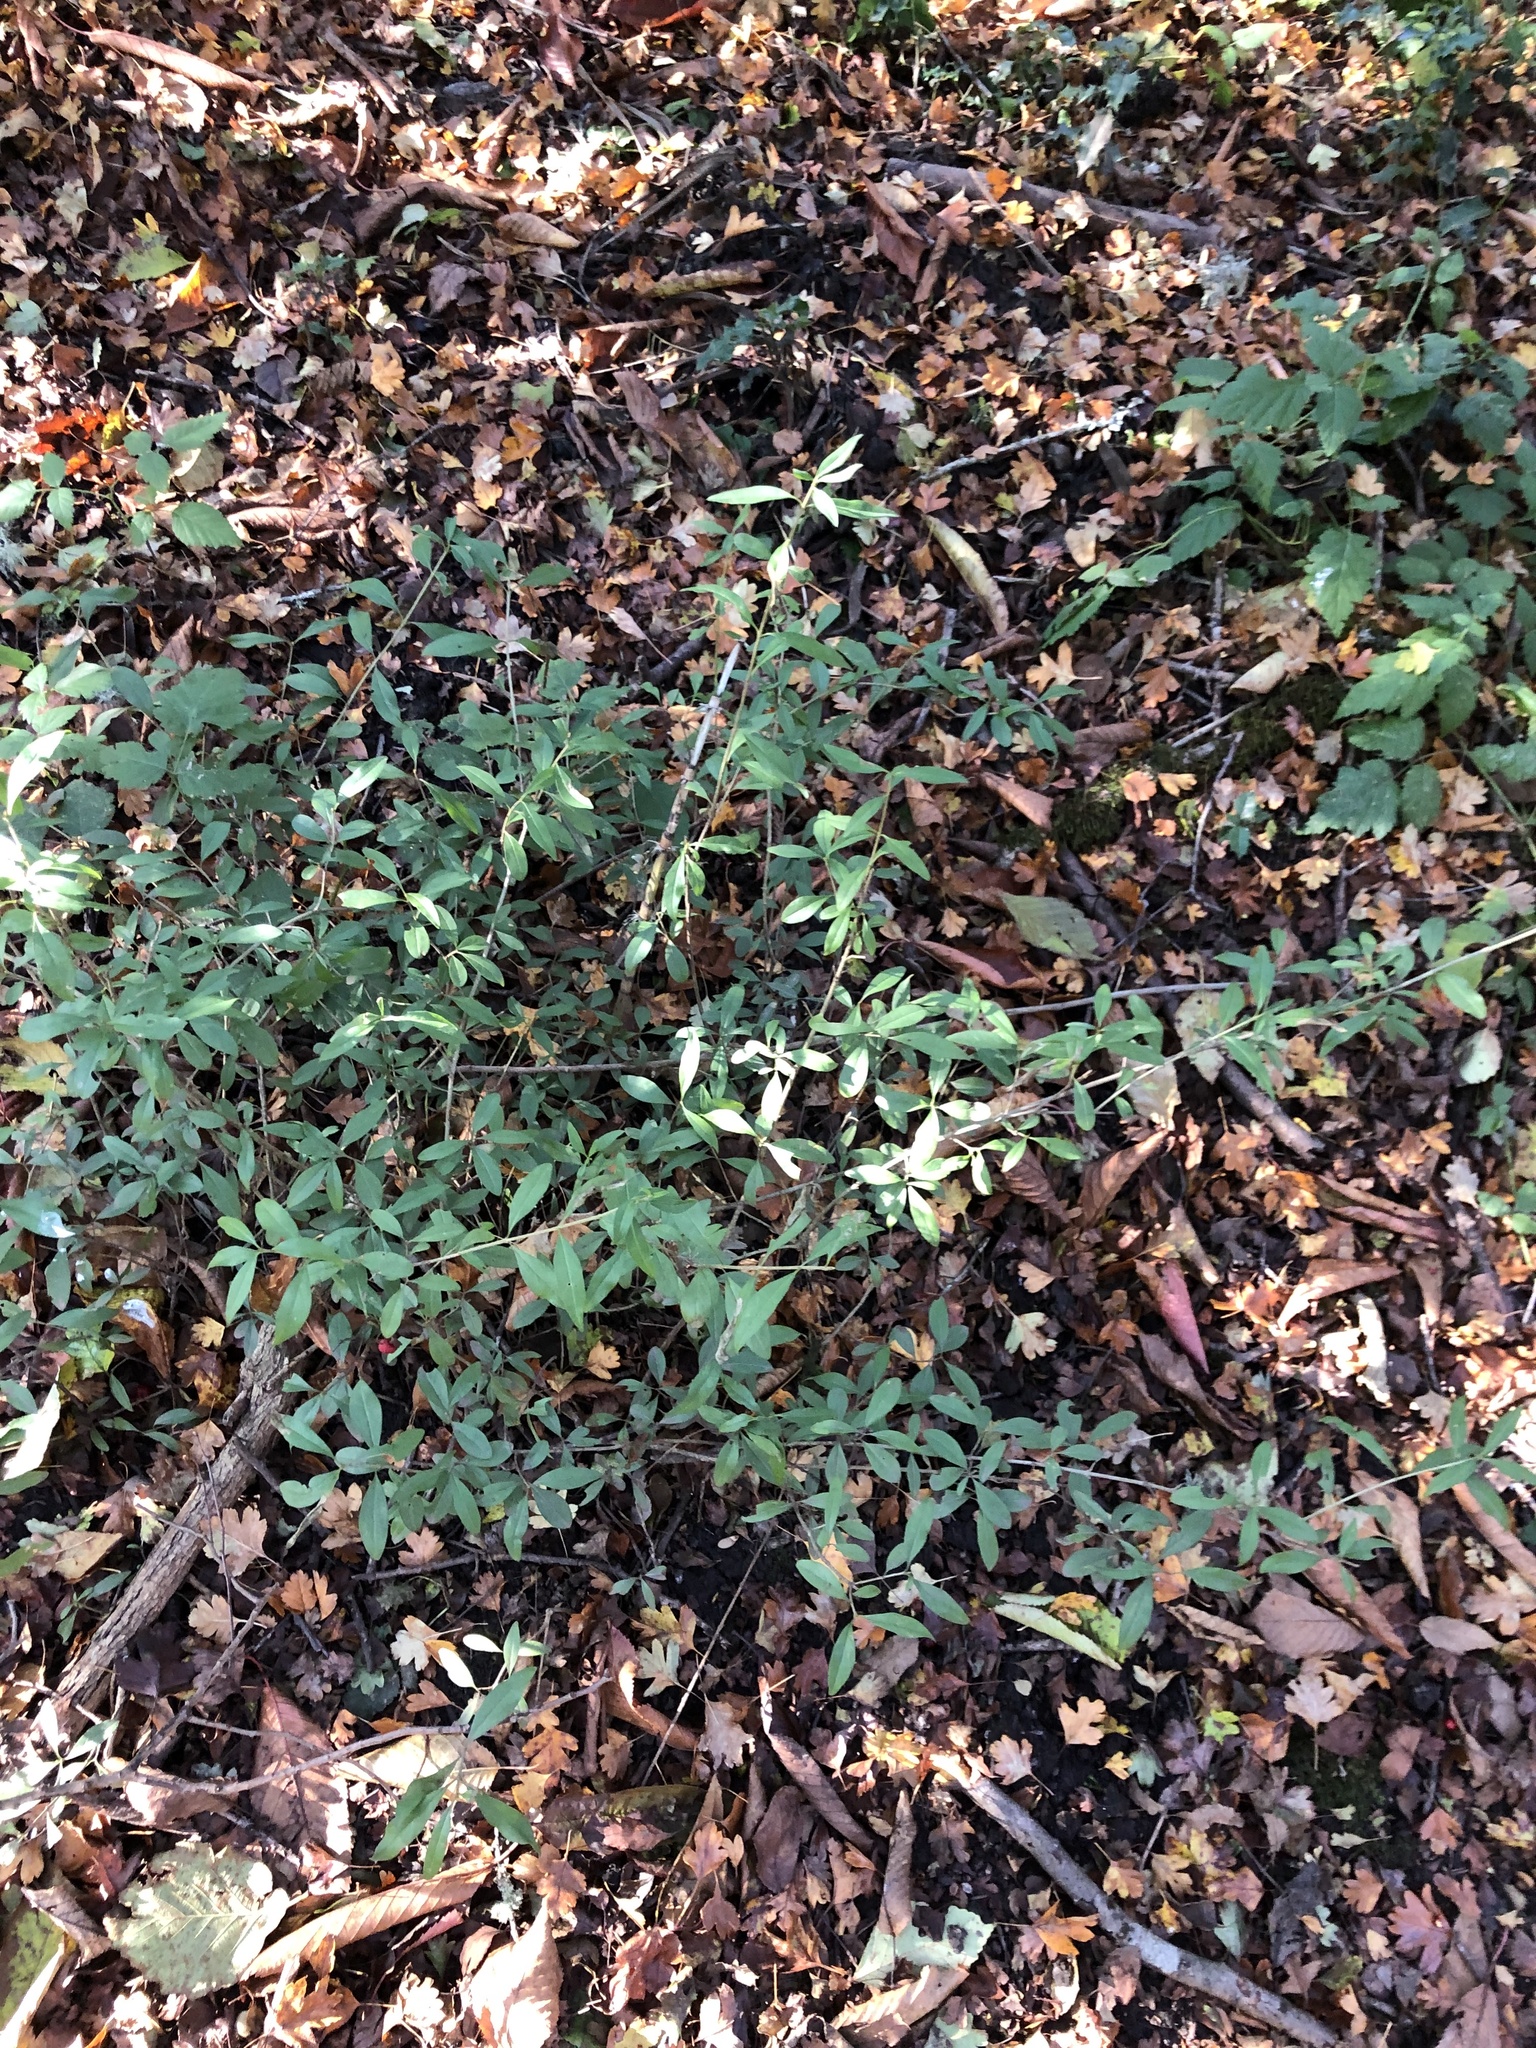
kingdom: Plantae
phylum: Tracheophyta
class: Magnoliopsida
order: Lamiales
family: Oleaceae
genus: Ligustrum
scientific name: Ligustrum vulgare
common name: Wild privet
